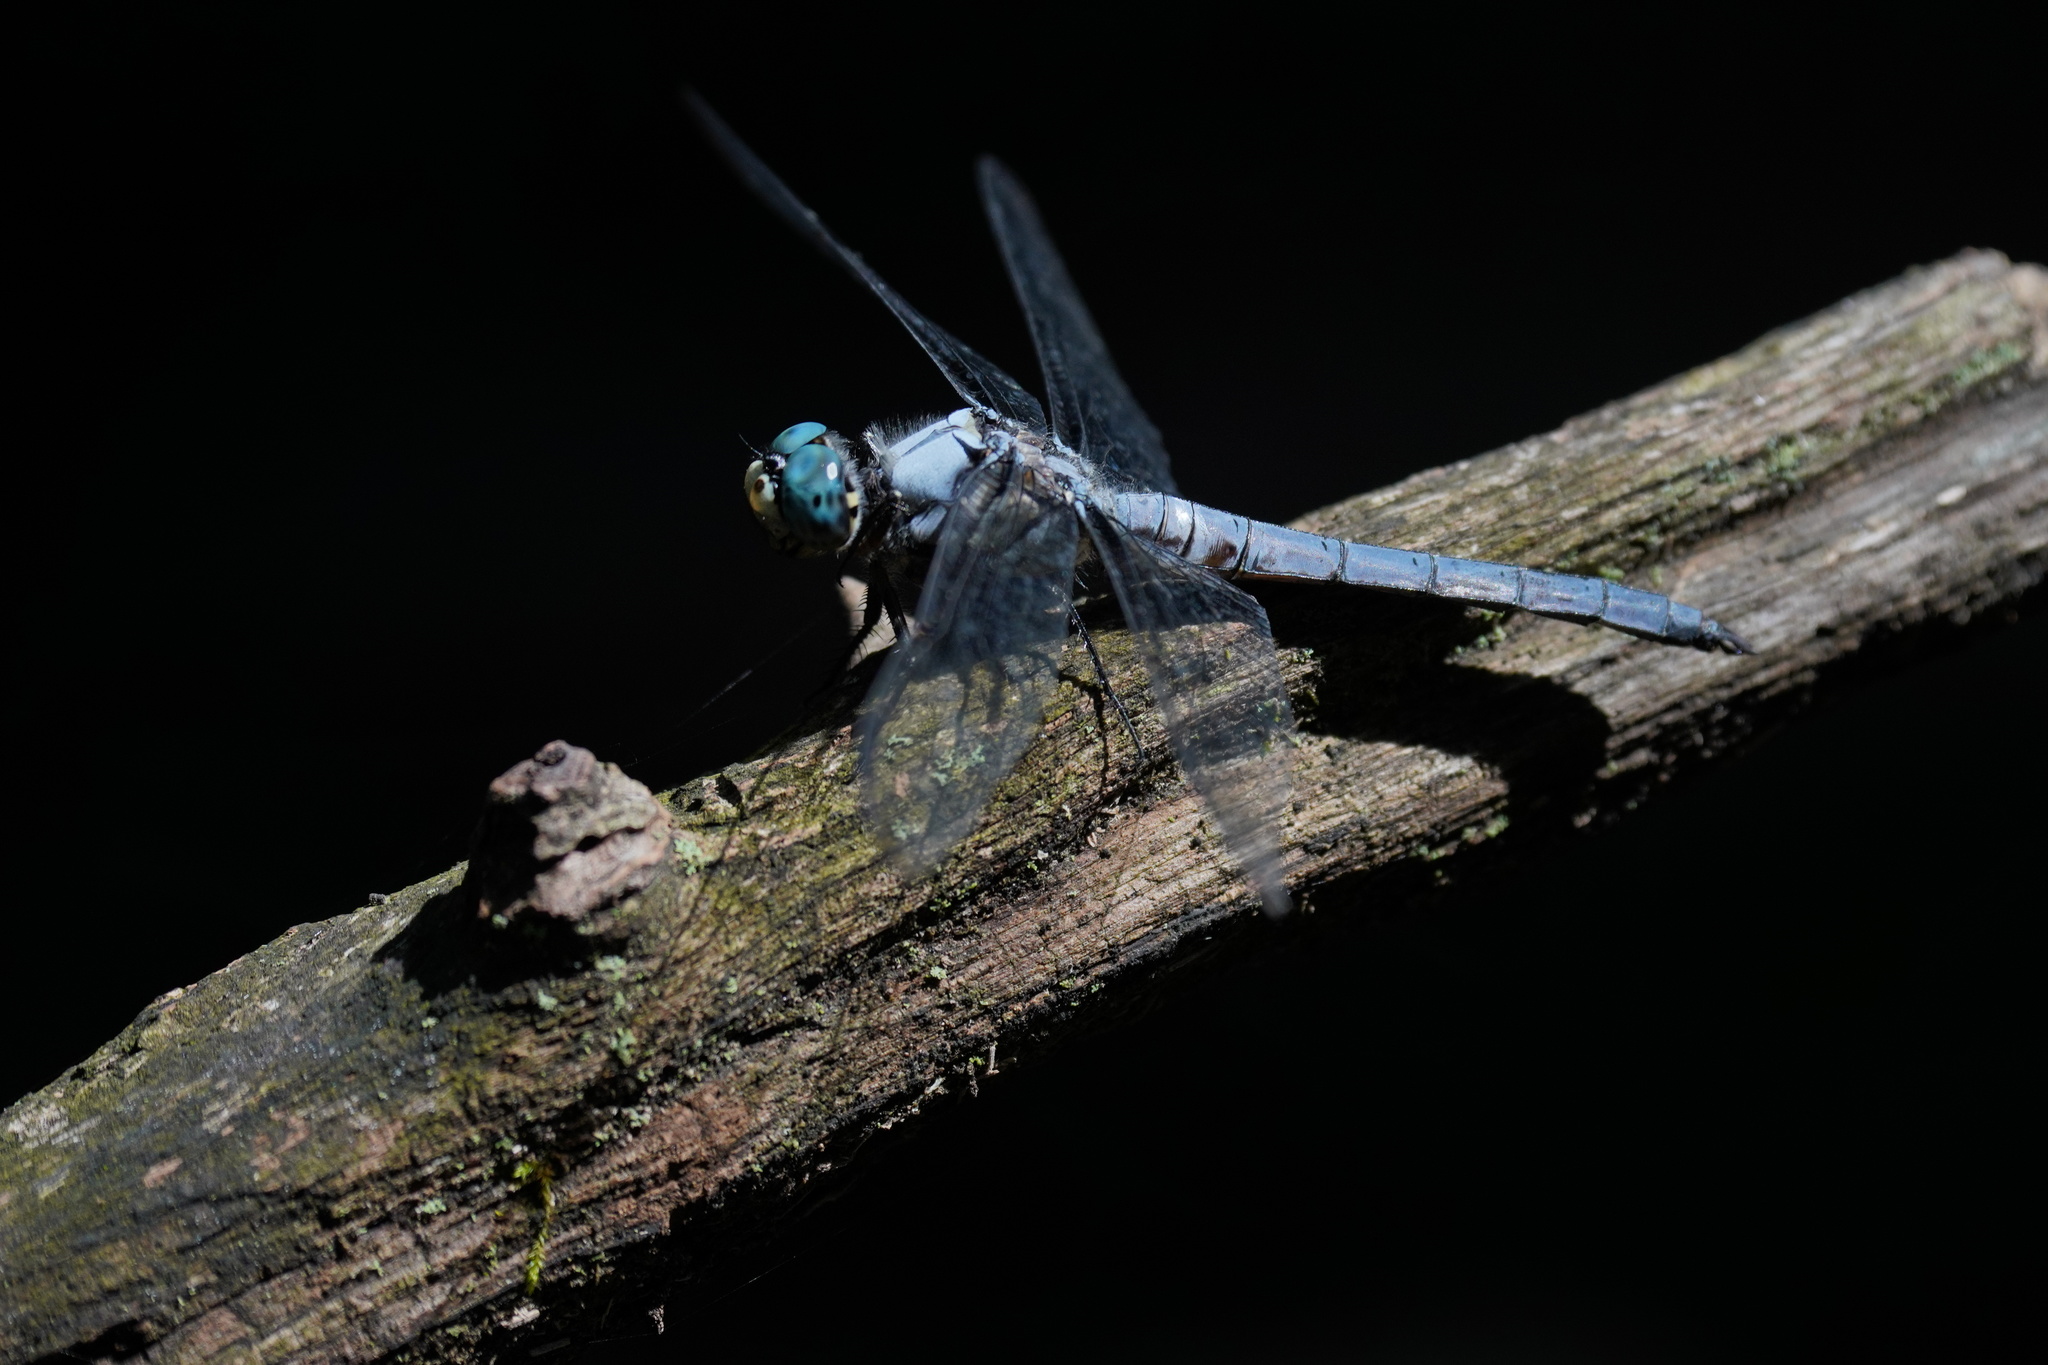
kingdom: Animalia
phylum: Arthropoda
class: Insecta
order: Odonata
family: Libellulidae
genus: Libellula
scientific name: Libellula vibrans
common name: Great blue skimmer
